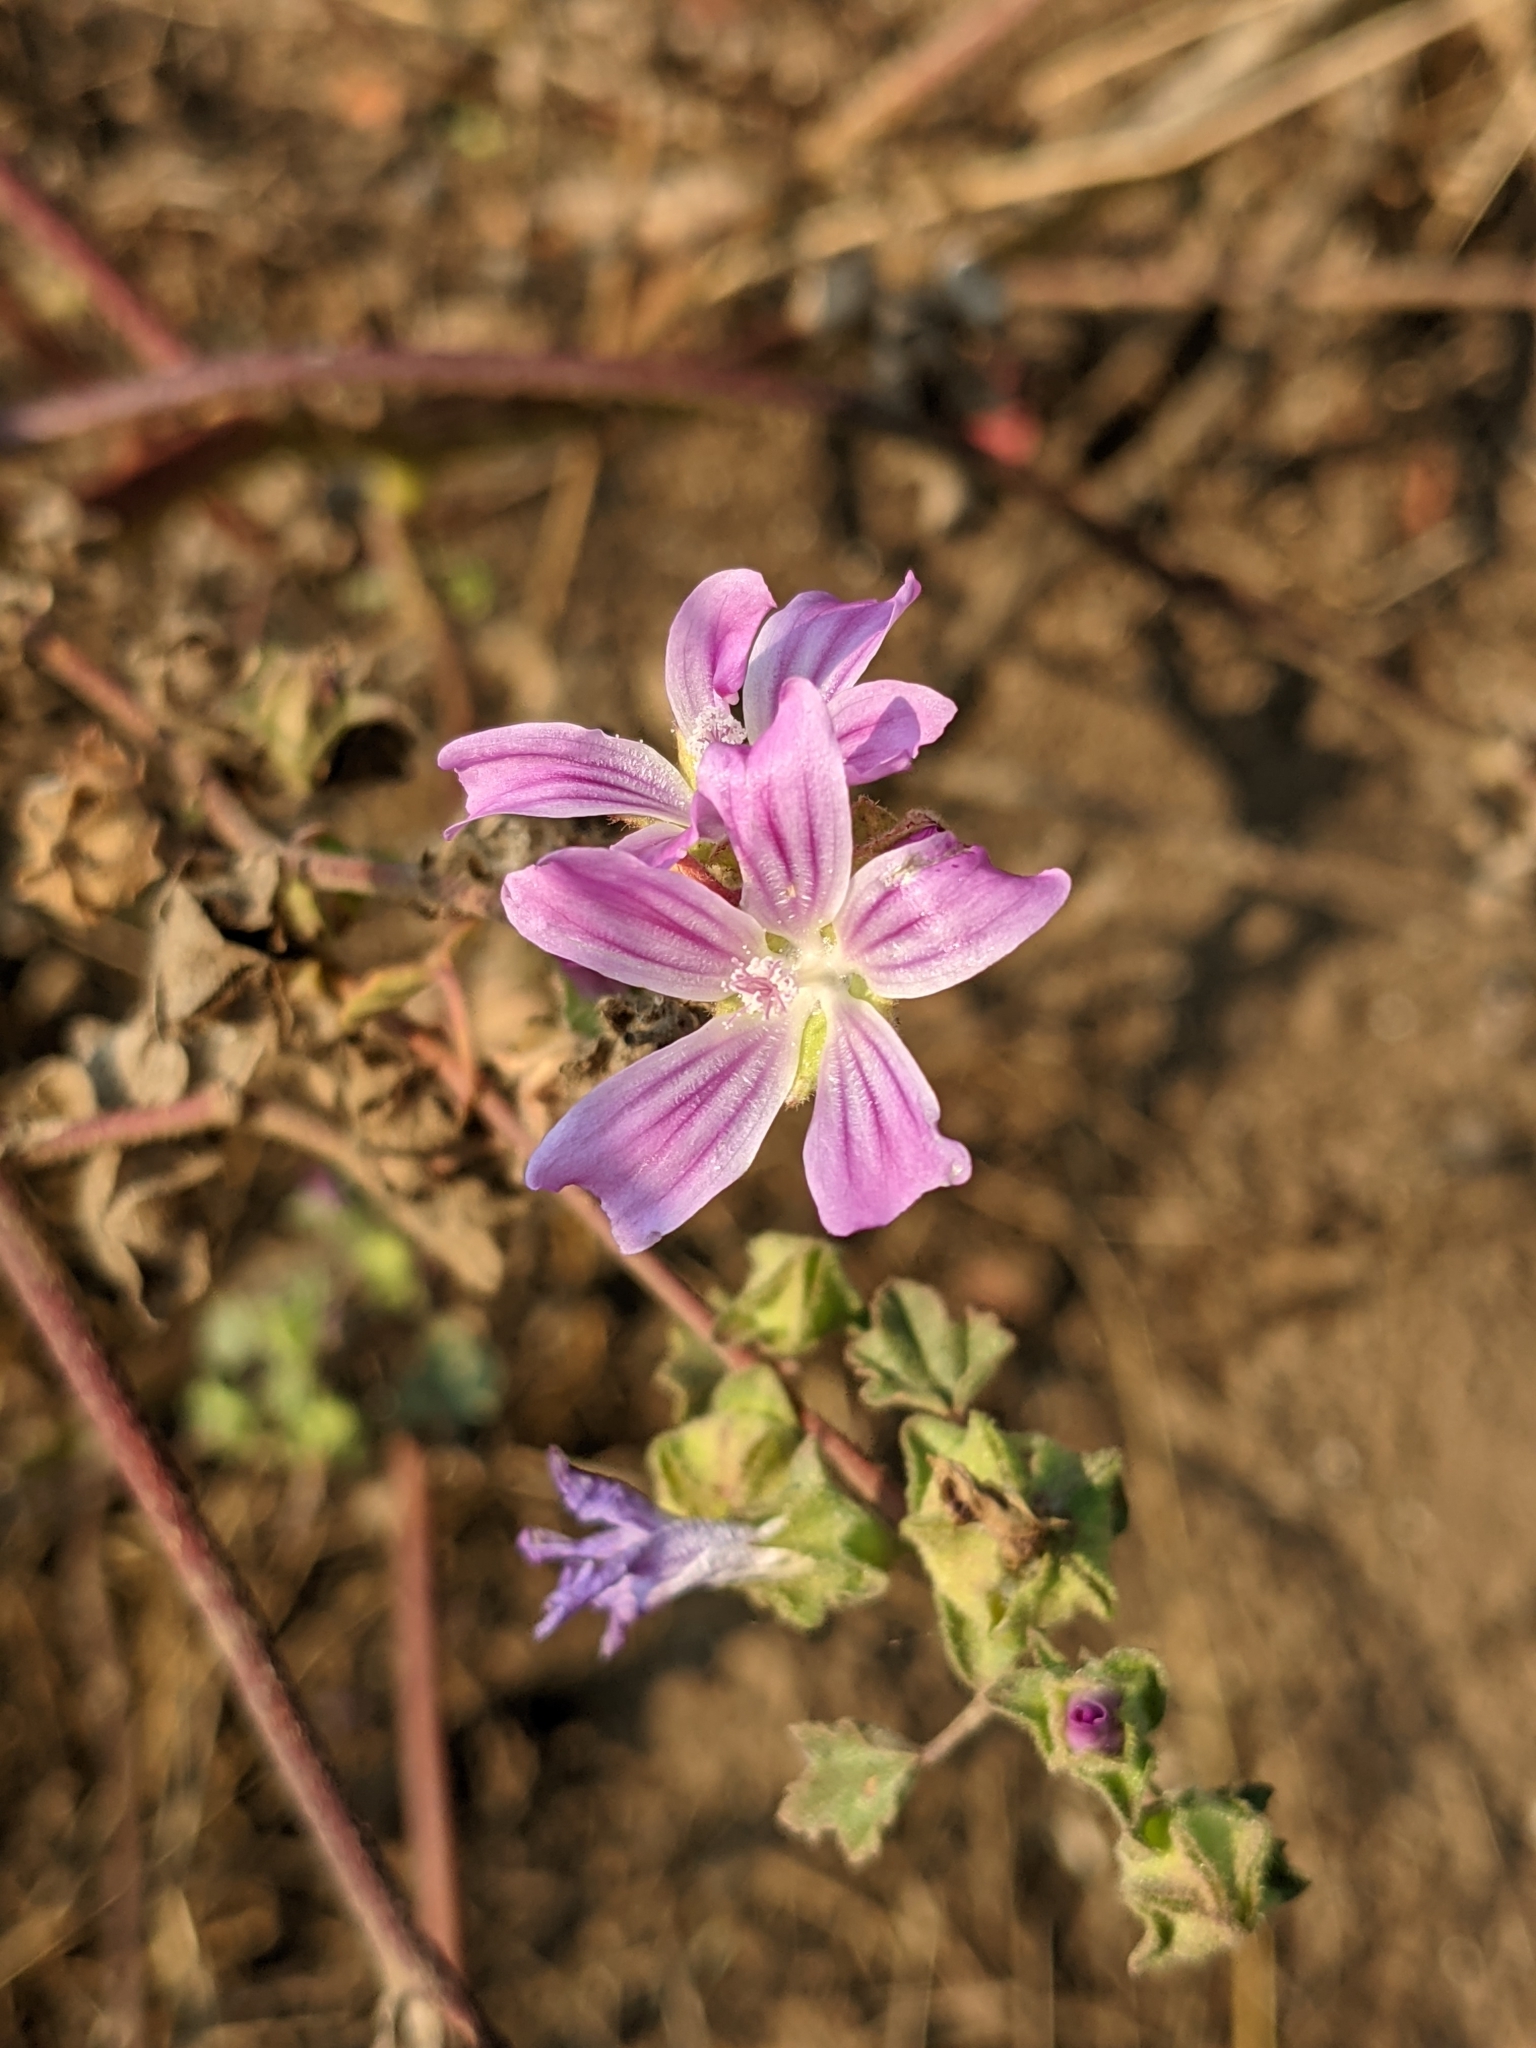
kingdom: Plantae
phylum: Tracheophyta
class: Magnoliopsida
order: Malvales
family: Malvaceae
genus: Malva
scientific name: Malva multiflora
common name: Cheeseweed
